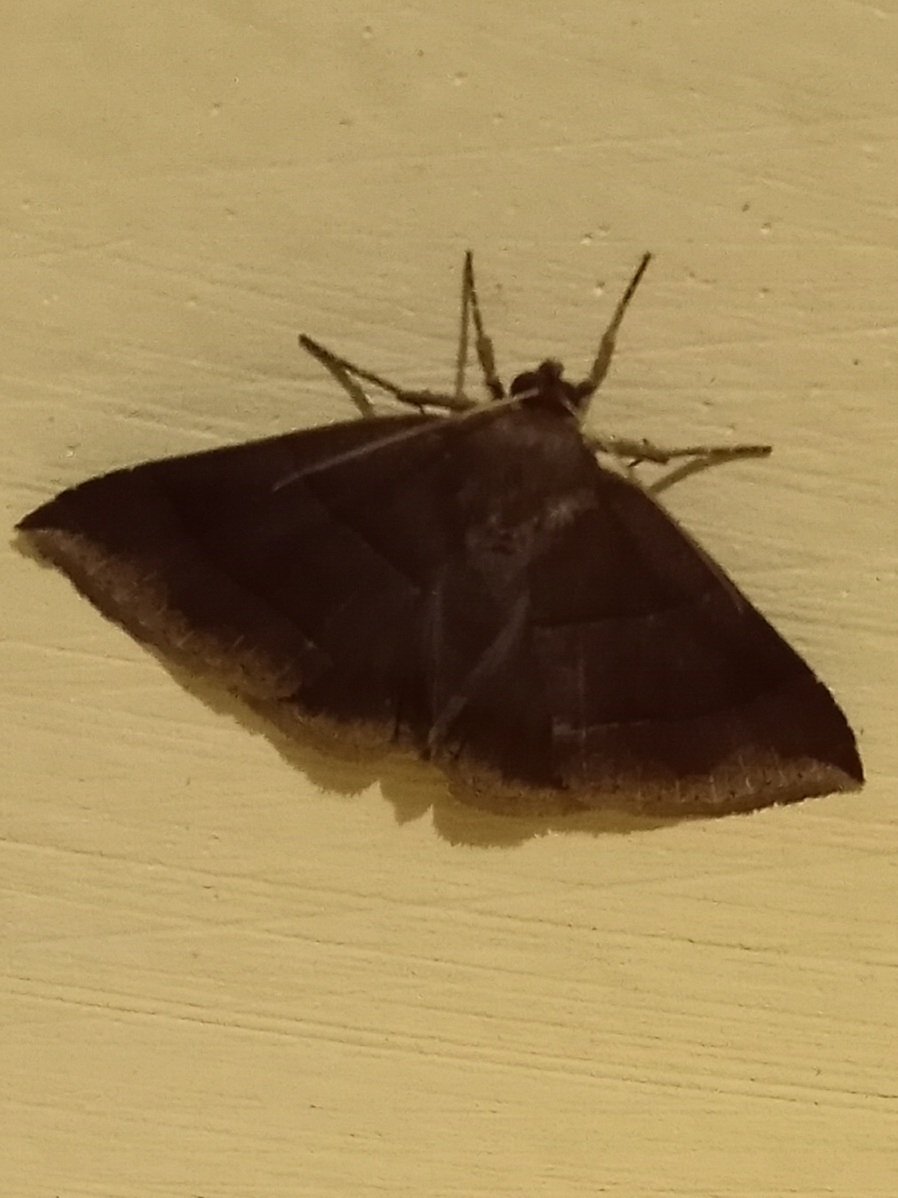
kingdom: Animalia
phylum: Arthropoda
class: Insecta
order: Lepidoptera
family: Erebidae
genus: Parallelia
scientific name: Parallelia bistriaris
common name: Maple looper moth
